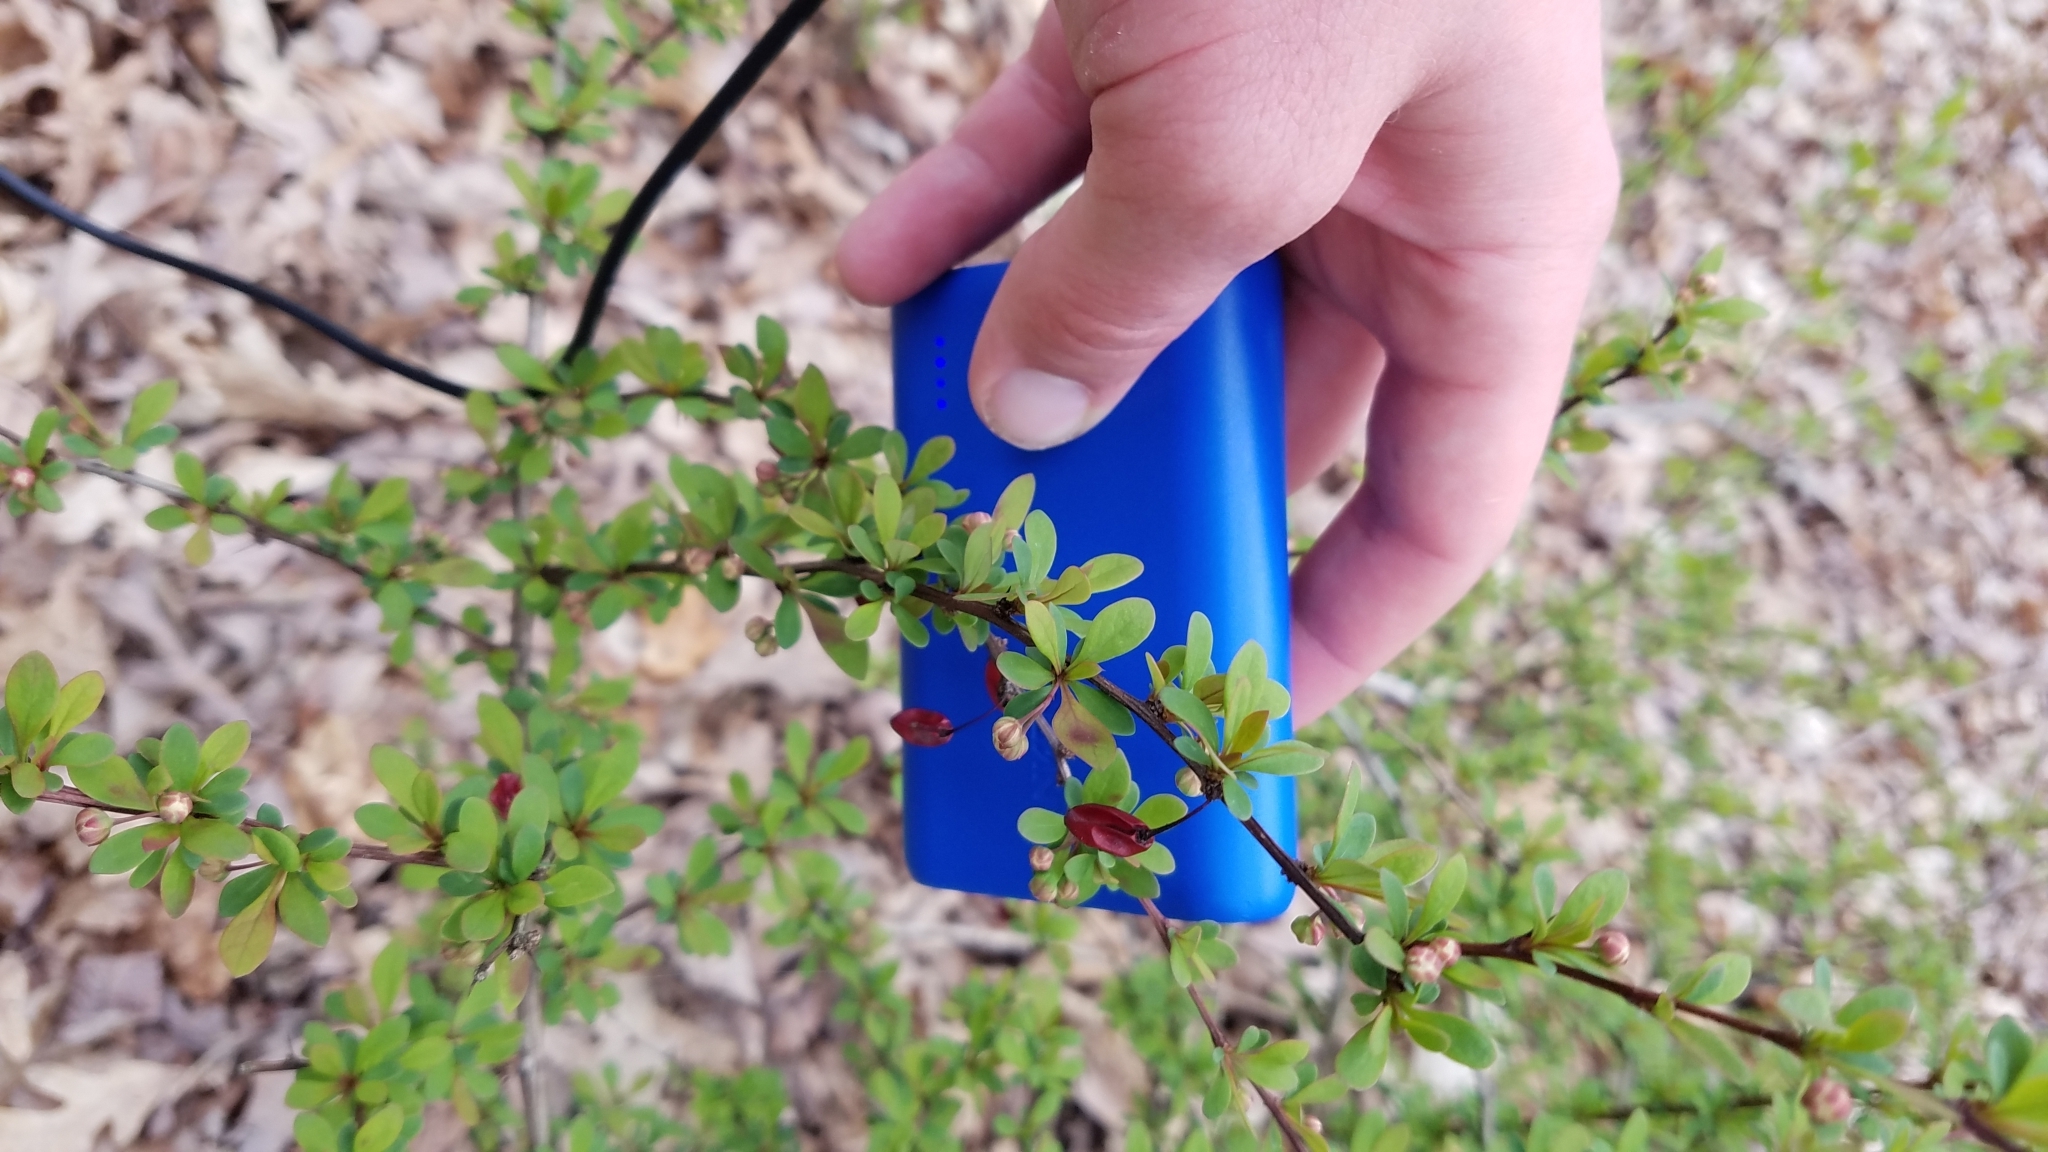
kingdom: Plantae
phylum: Tracheophyta
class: Magnoliopsida
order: Ranunculales
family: Berberidaceae
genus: Berberis
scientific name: Berberis thunbergii
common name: Japanese barberry
